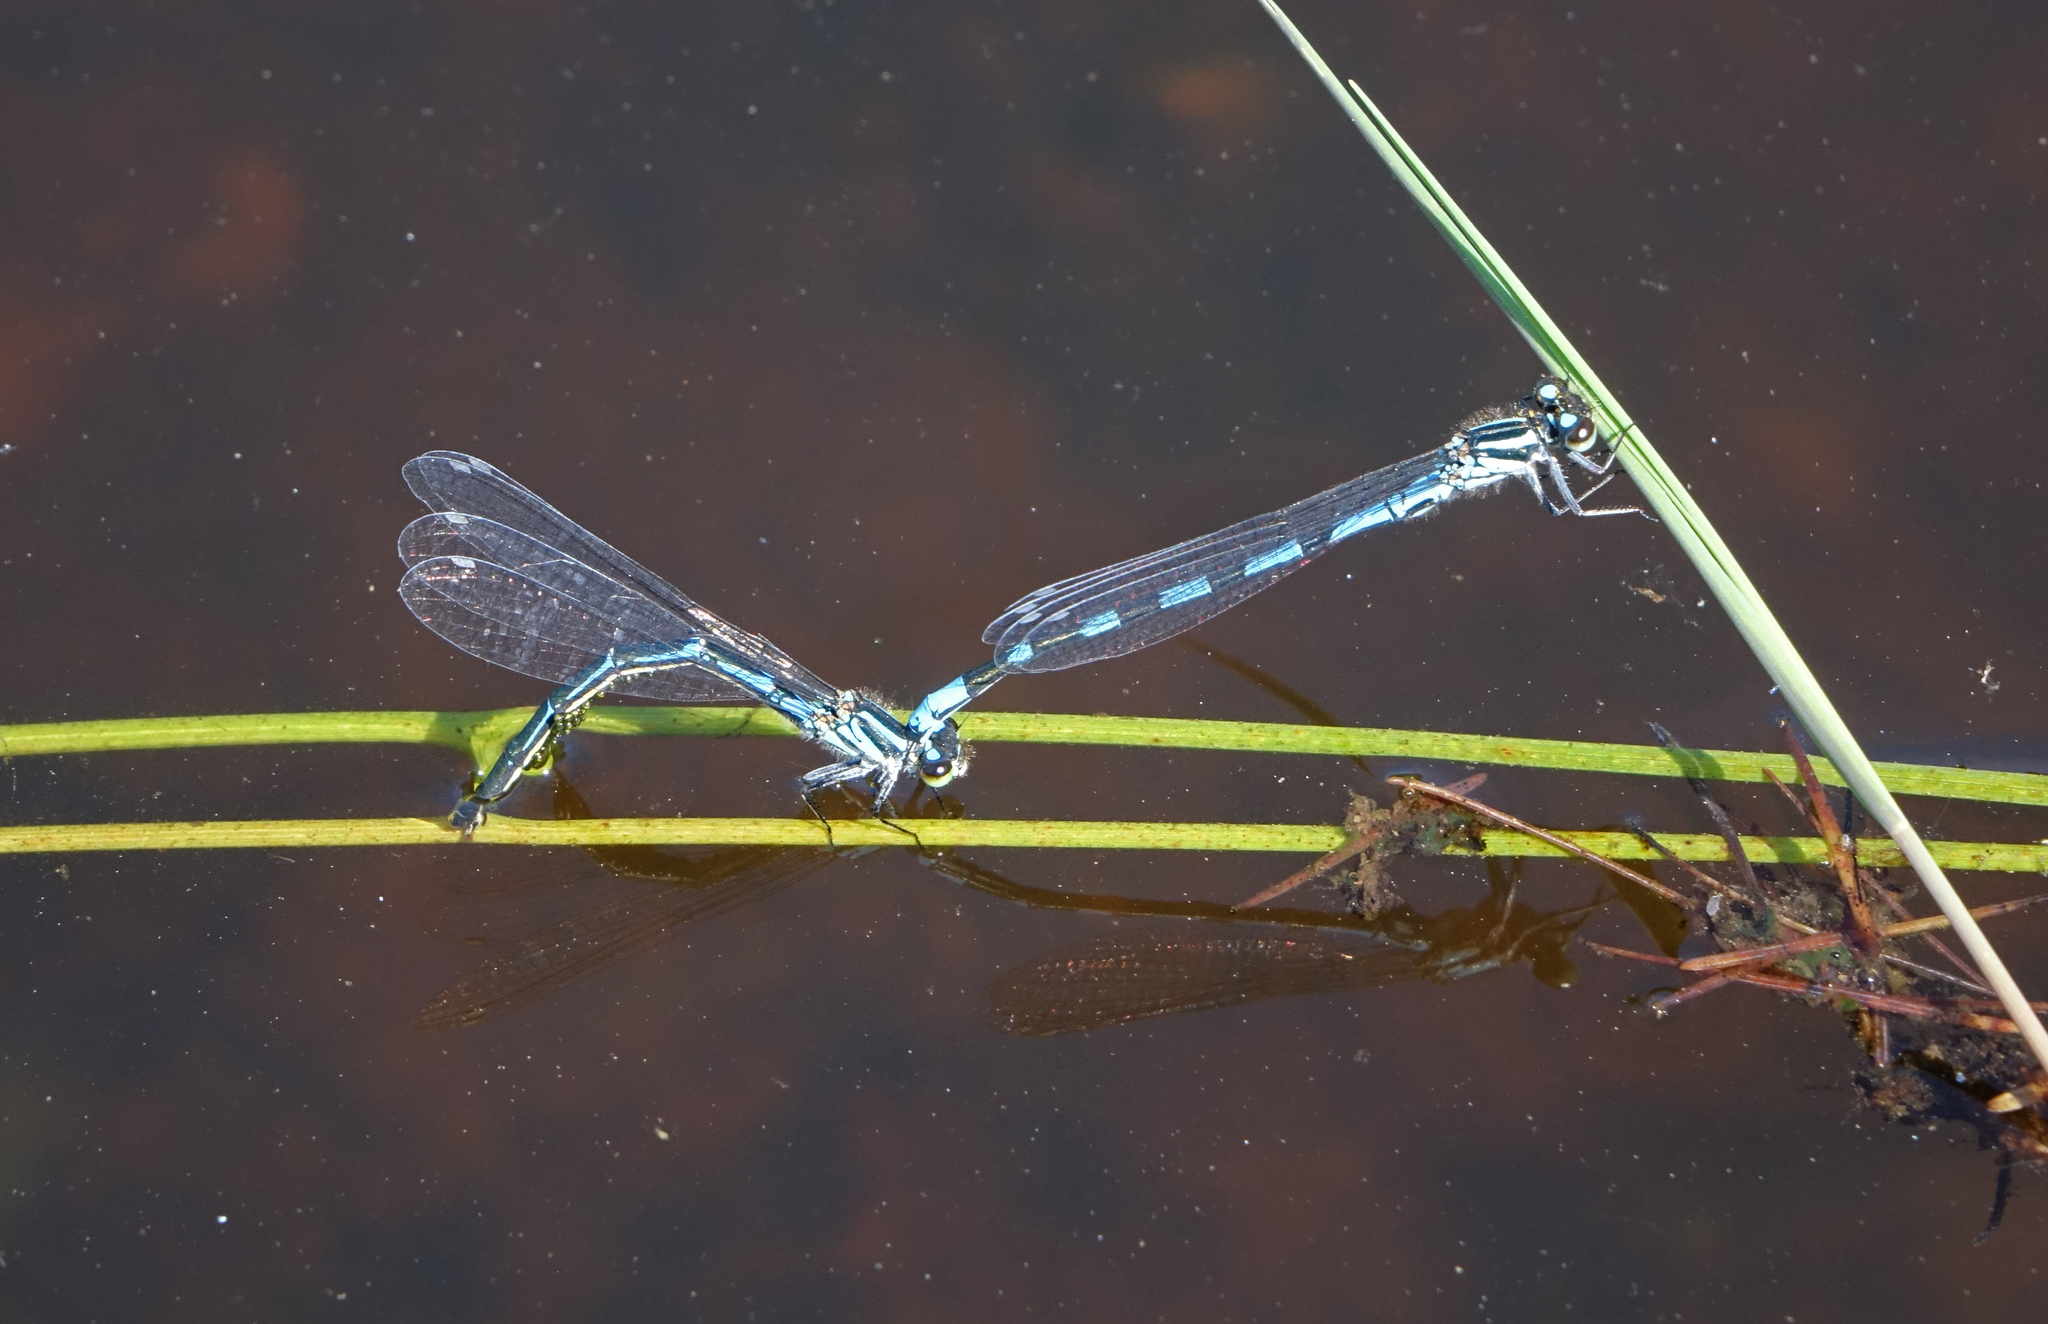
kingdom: Animalia
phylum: Arthropoda
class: Insecta
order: Odonata
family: Coenagrionidae
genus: Coenagrion
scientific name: Coenagrion hylas
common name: Frey's damselfly
